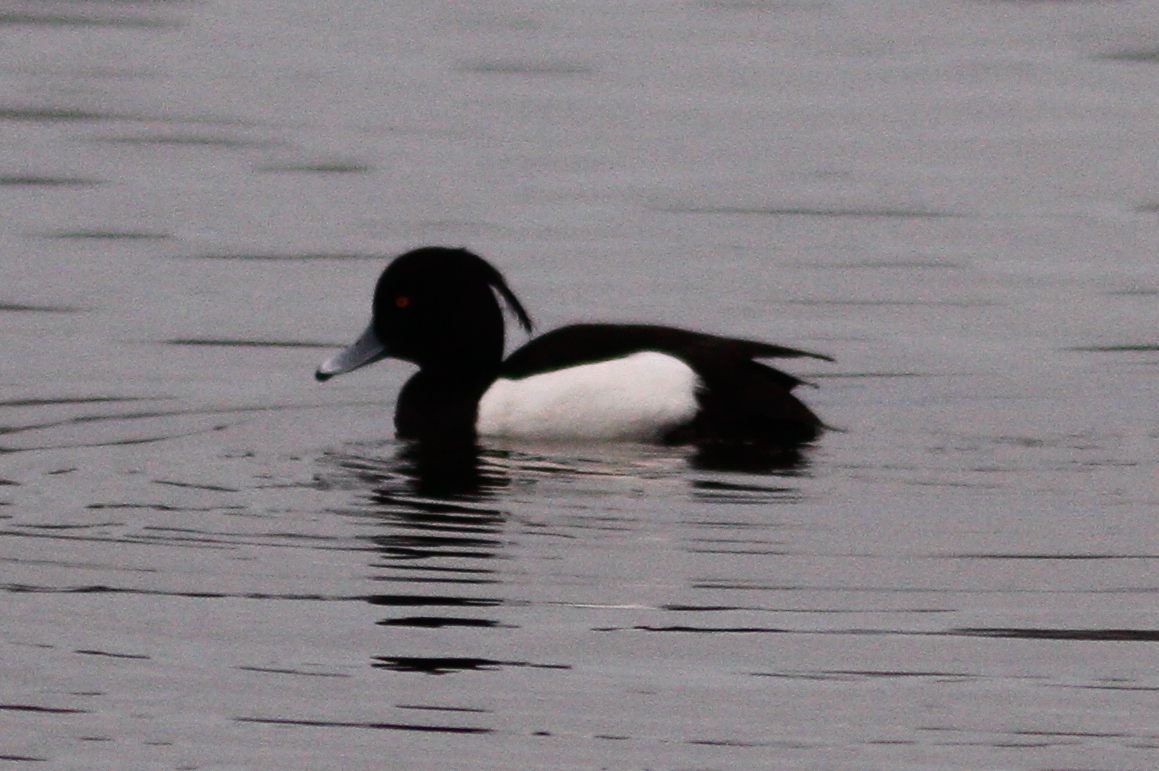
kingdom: Animalia
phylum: Chordata
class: Aves
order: Anseriformes
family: Anatidae
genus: Aythya
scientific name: Aythya fuligula
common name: Tufted duck
